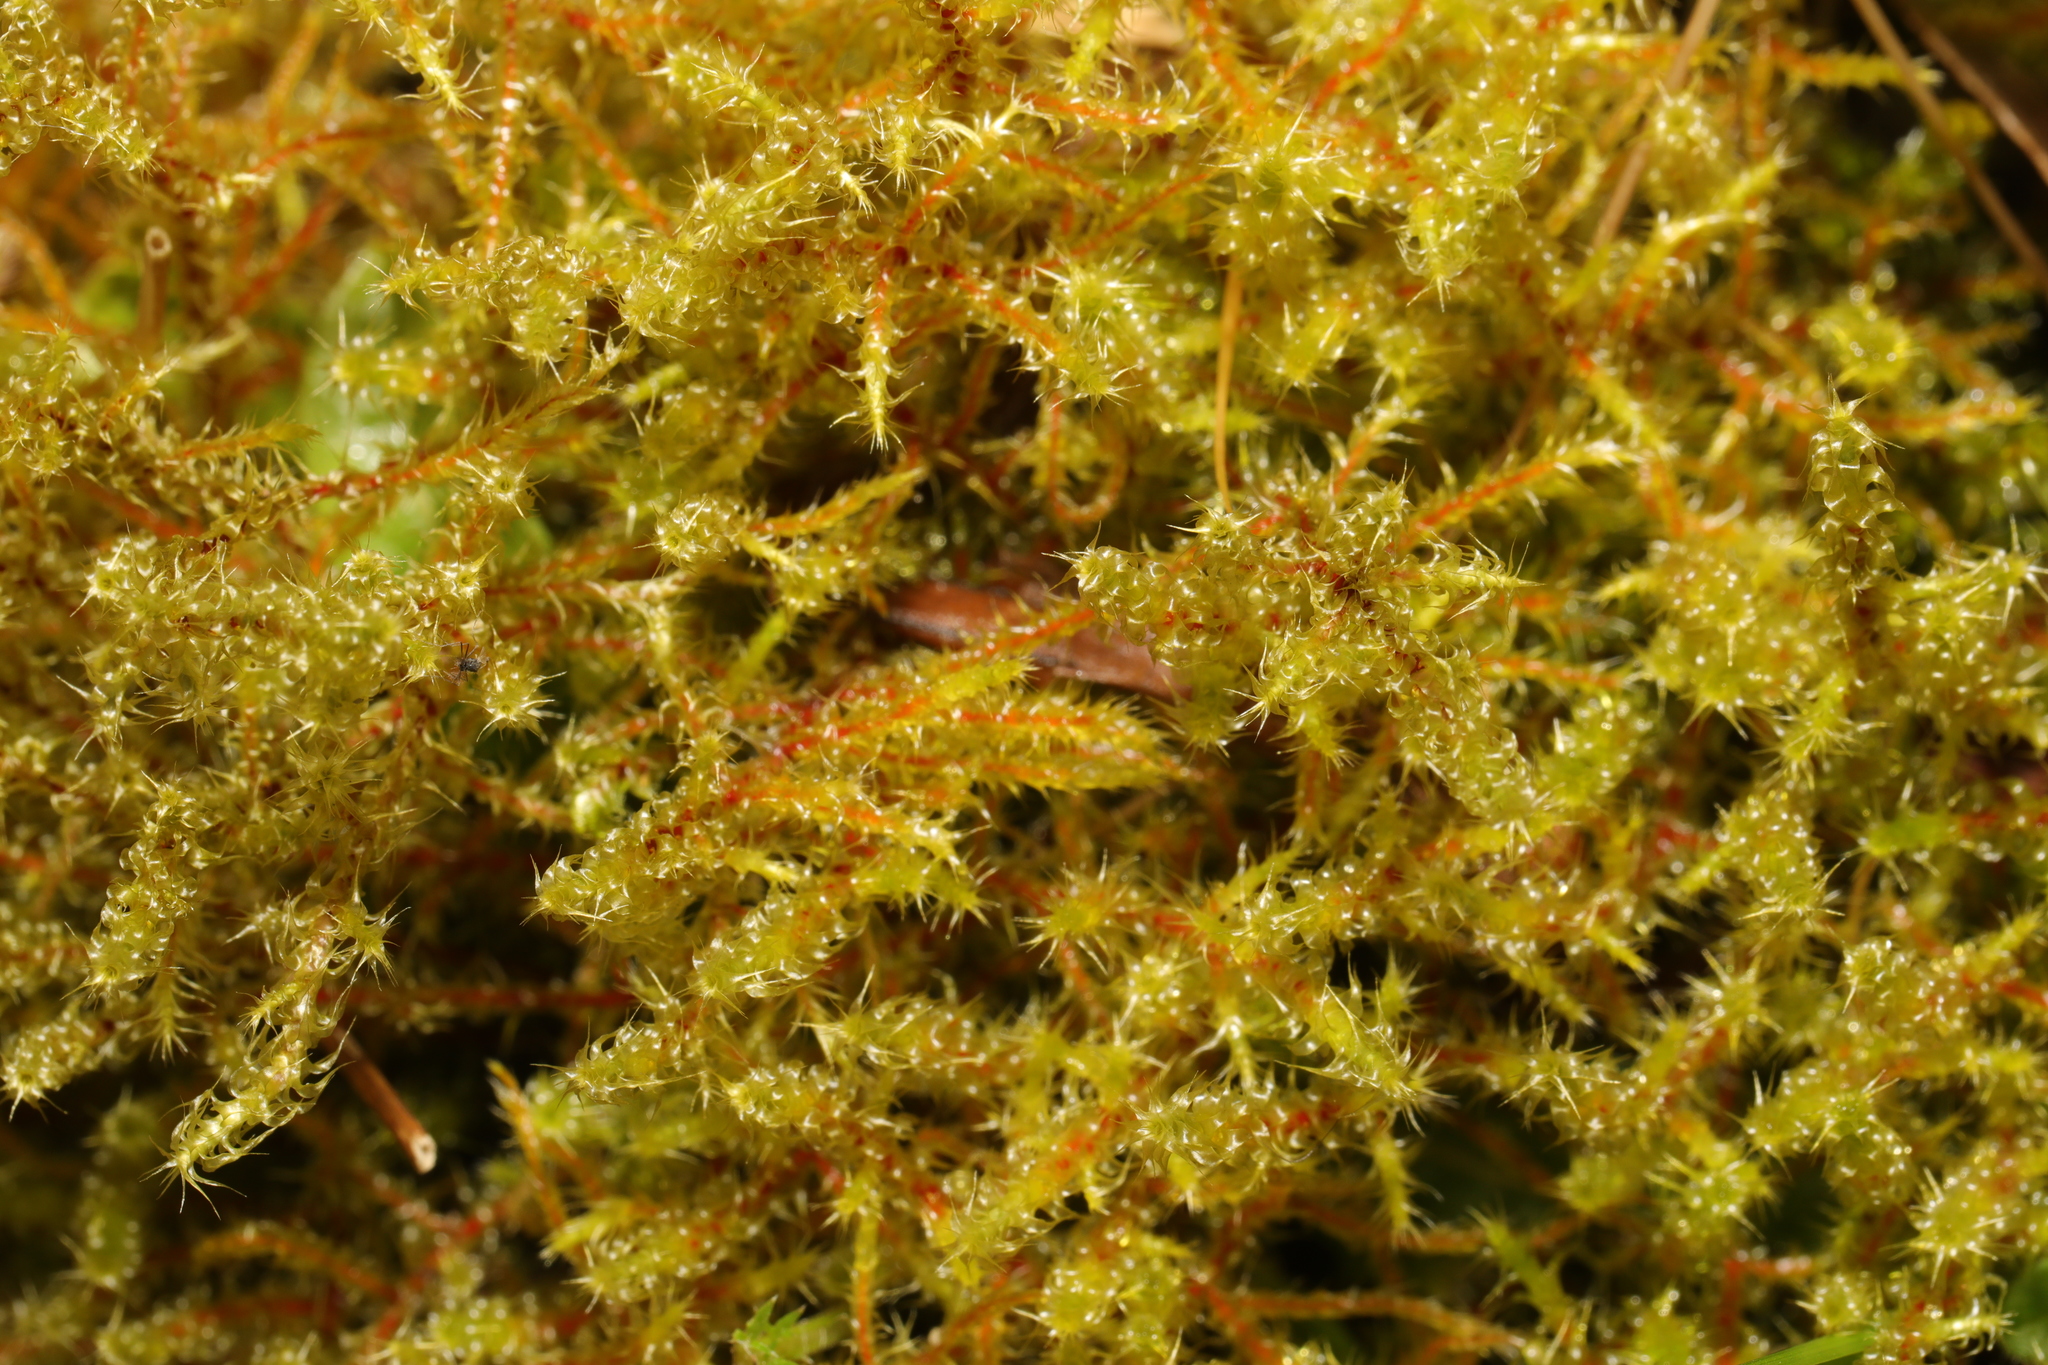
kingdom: Plantae
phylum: Bryophyta
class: Bryopsida
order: Hypnales
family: Hylocomiaceae
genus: Rhytidiadelphus
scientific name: Rhytidiadelphus squarrosus
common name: Springy turf-moss
